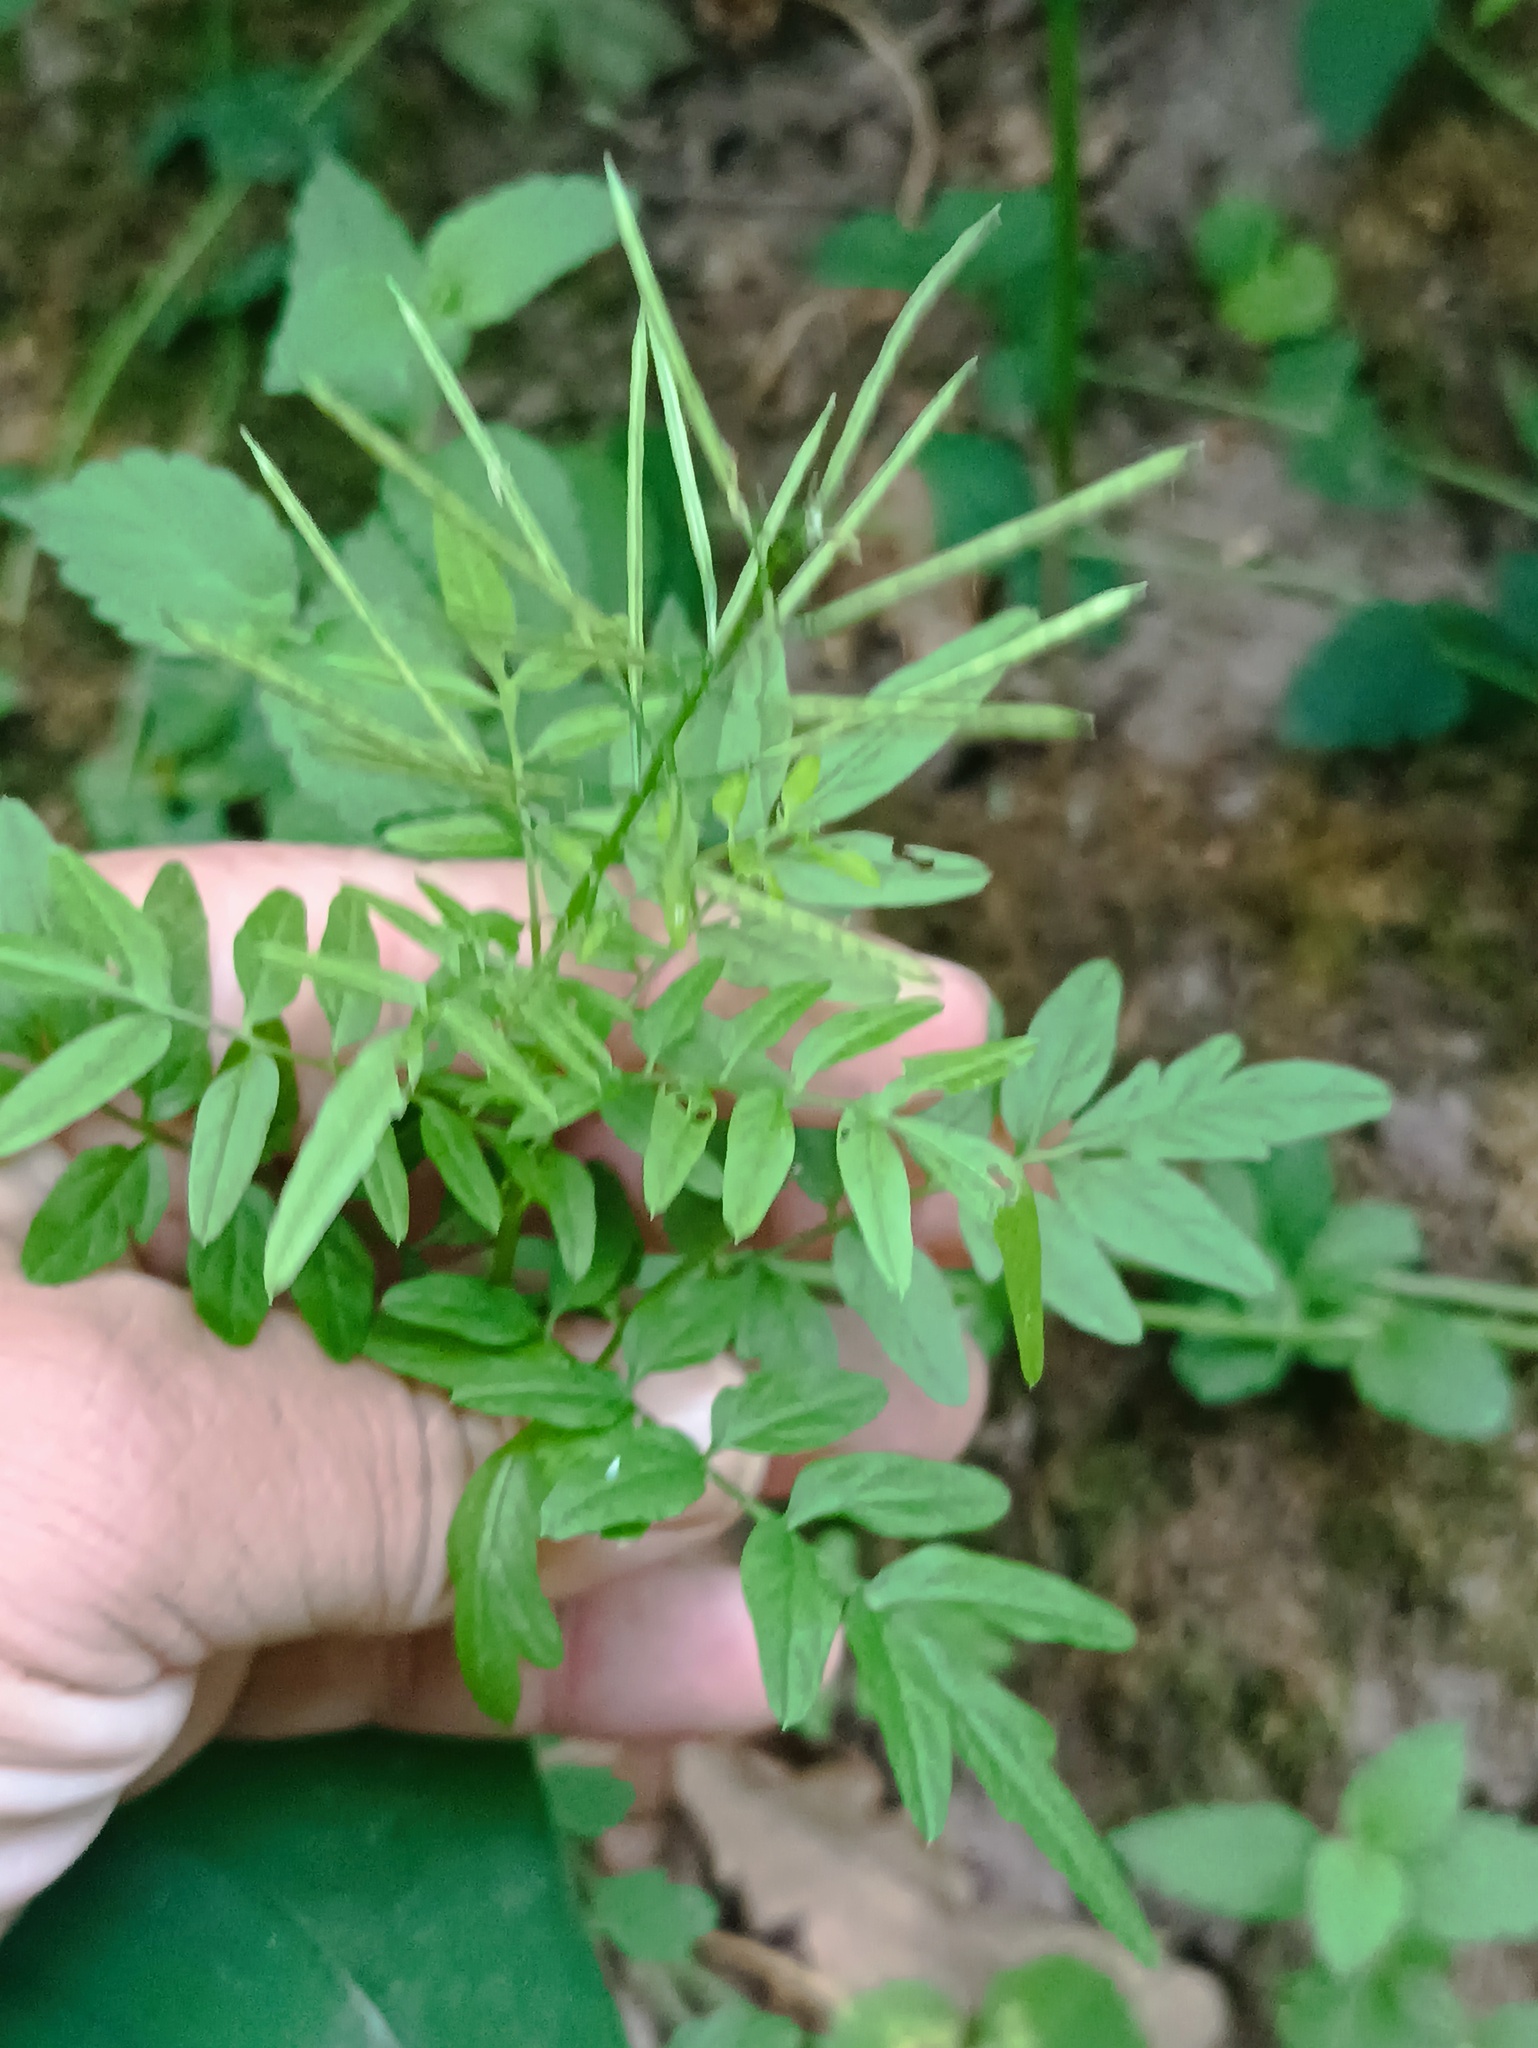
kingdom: Plantae
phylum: Tracheophyta
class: Magnoliopsida
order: Brassicales
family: Brassicaceae
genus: Cardamine
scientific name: Cardamine impatiens
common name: Narrow-leaved bitter-cress
